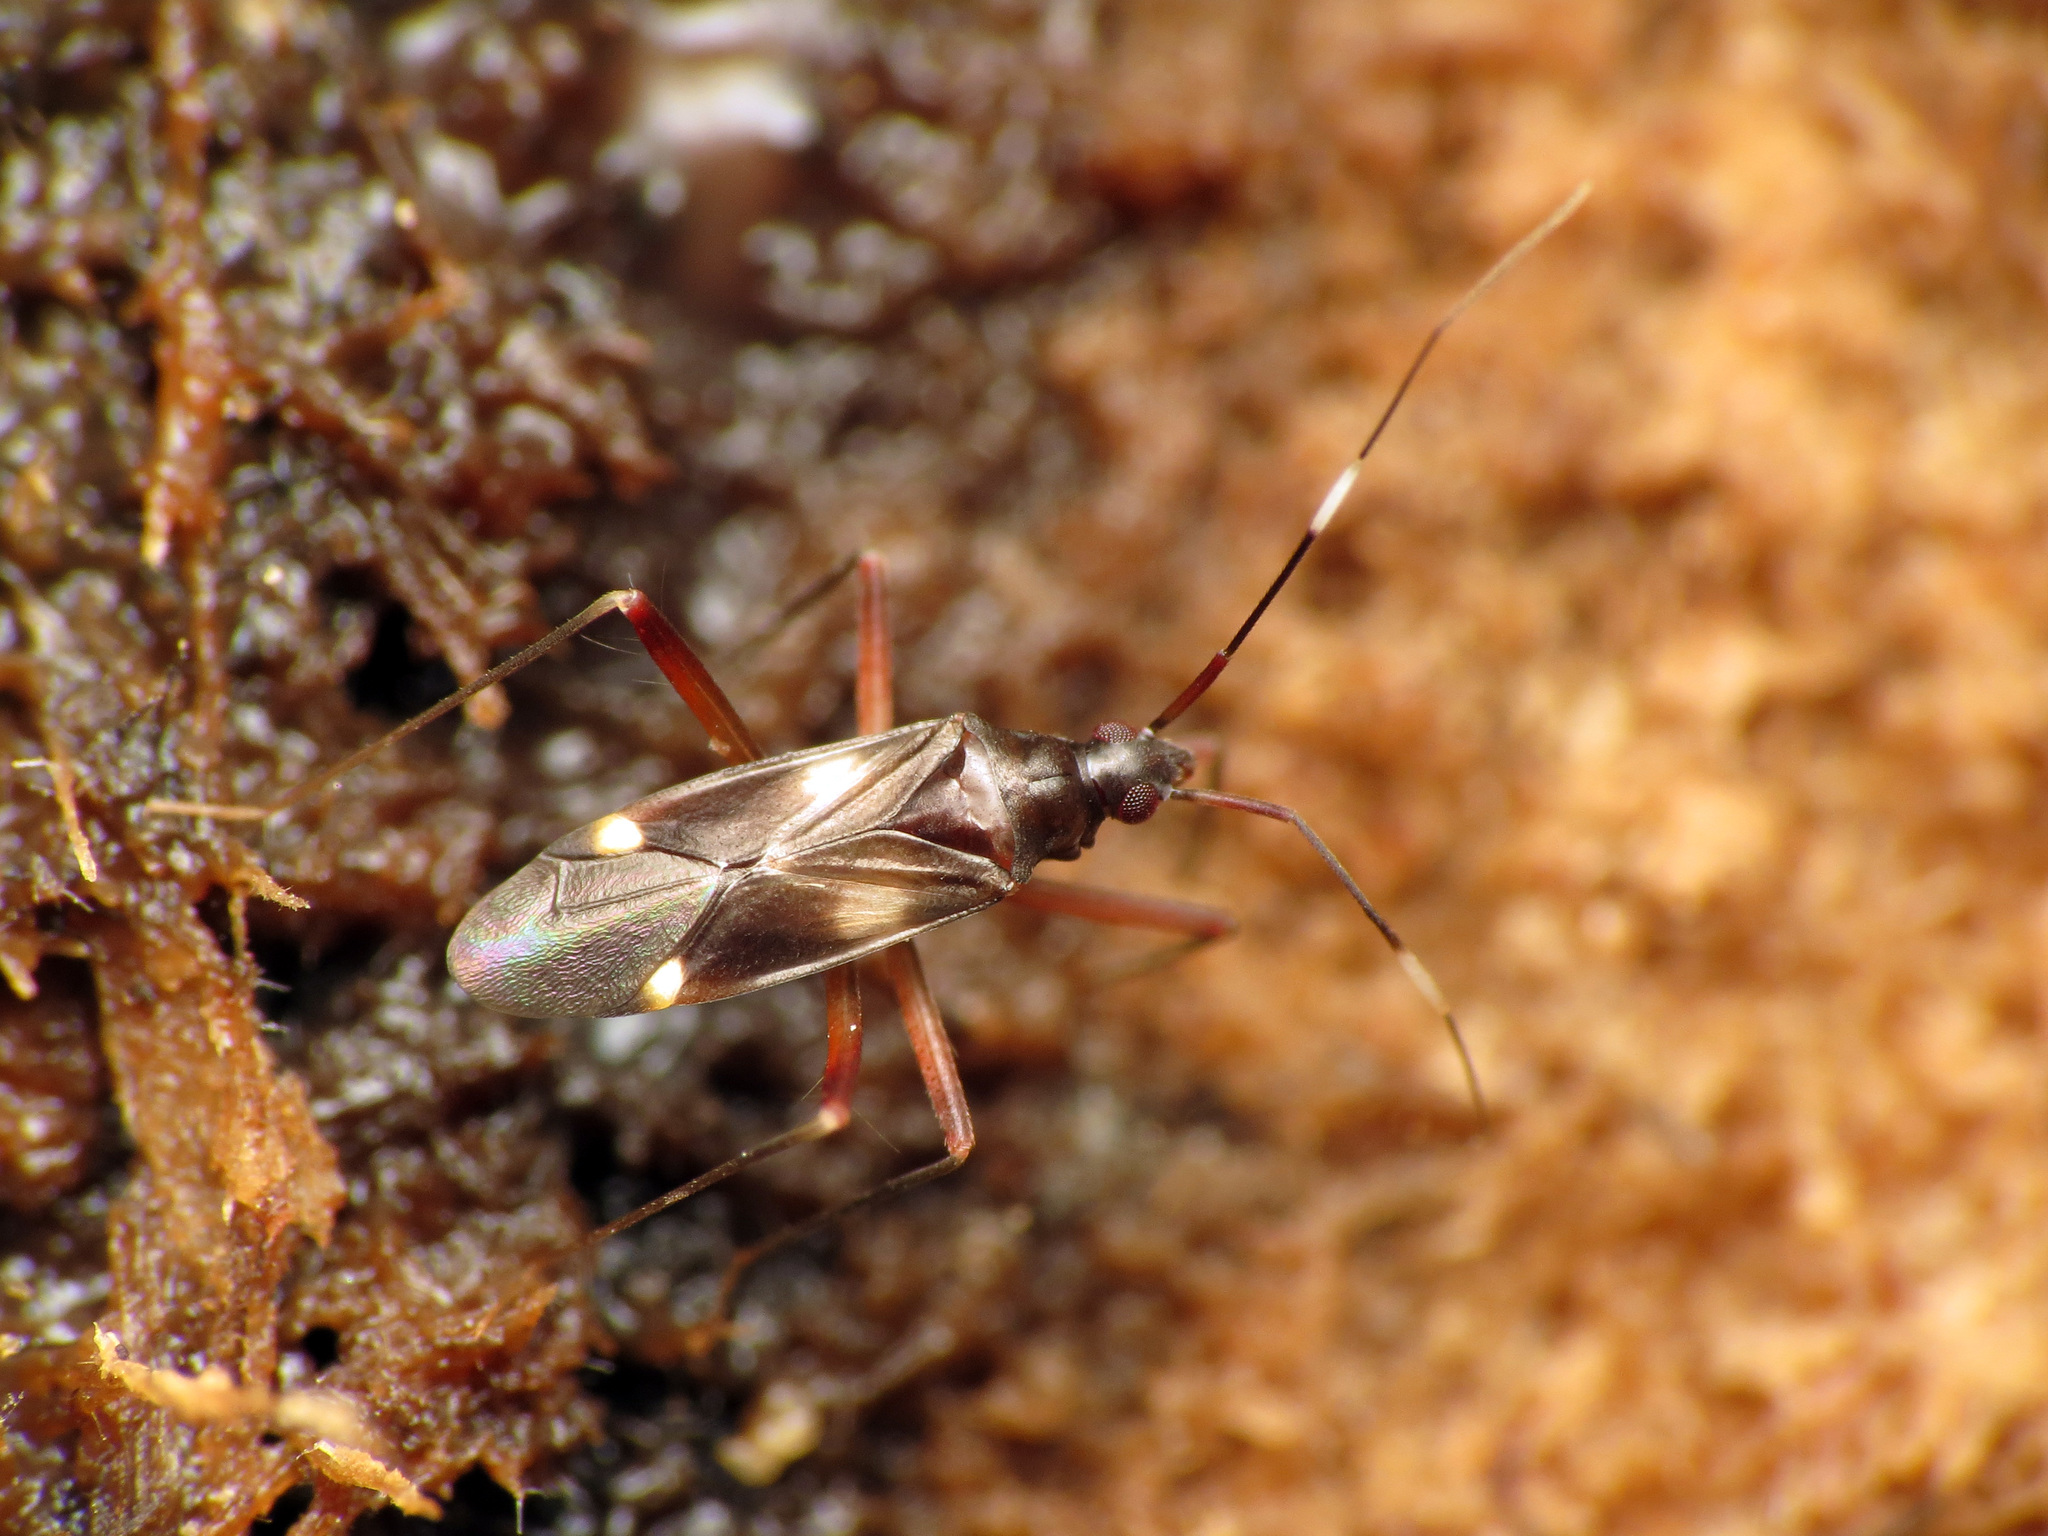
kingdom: Animalia
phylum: Arthropoda
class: Insecta
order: Hemiptera
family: Miridae
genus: Fulvius
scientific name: Fulvius imbecilis
